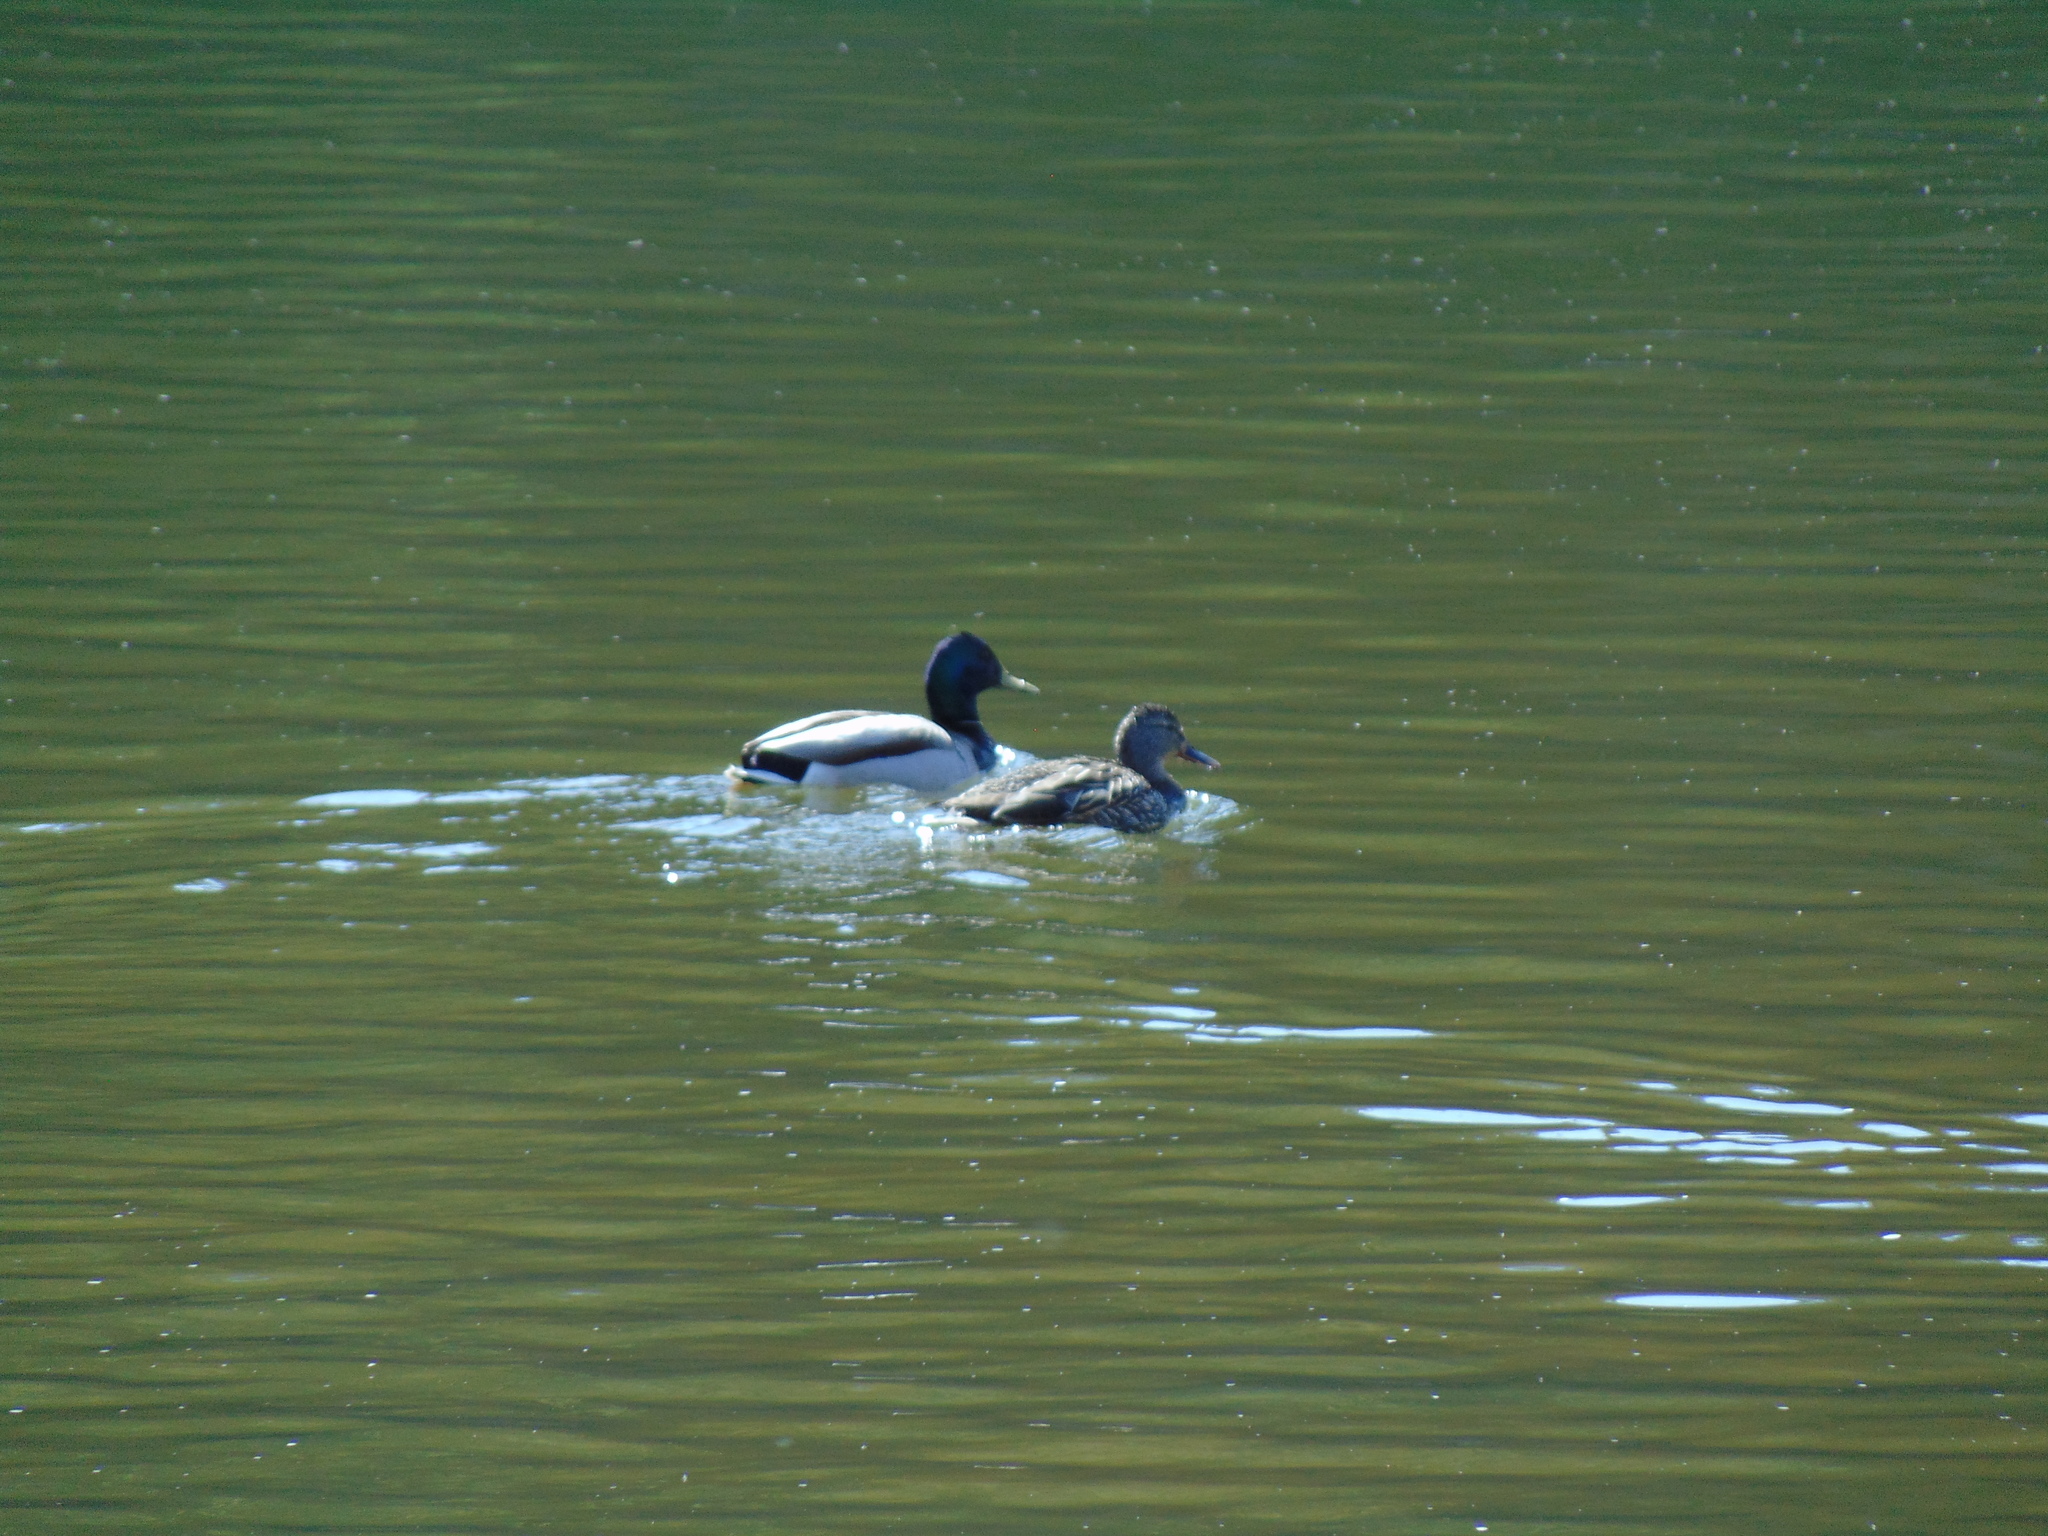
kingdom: Animalia
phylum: Chordata
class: Aves
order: Anseriformes
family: Anatidae
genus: Anas
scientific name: Anas platyrhynchos
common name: Mallard
